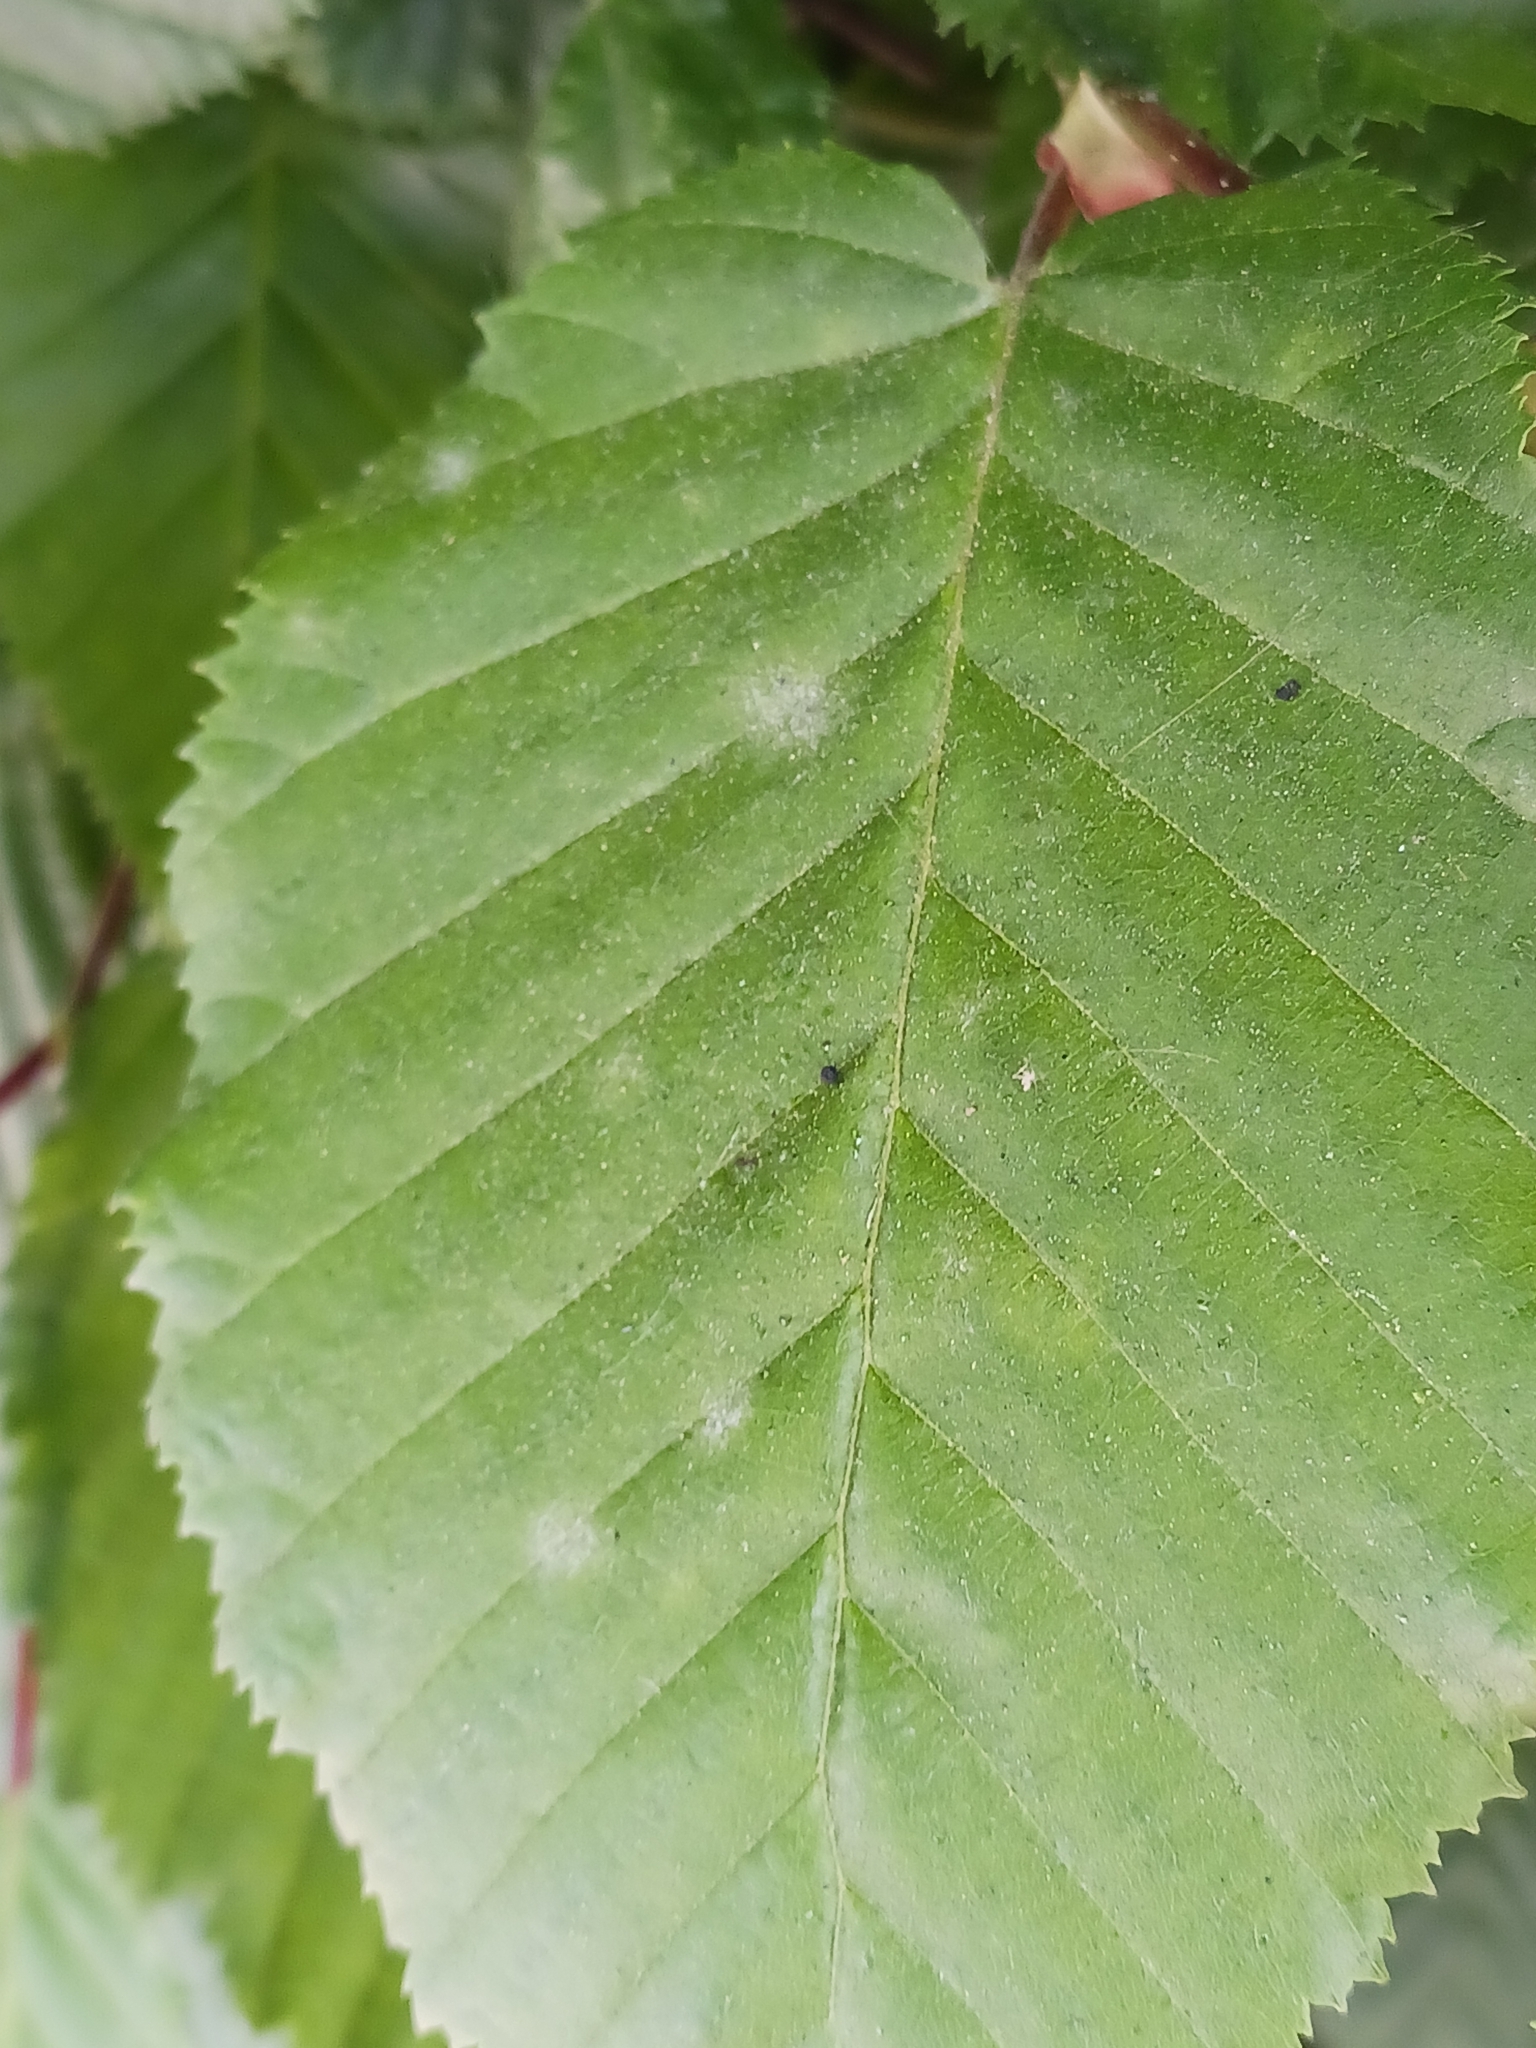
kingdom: Fungi
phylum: Ascomycota
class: Leotiomycetes
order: Helotiales
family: Erysiphaceae
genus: Erysiphe
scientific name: Erysiphe arcuata
